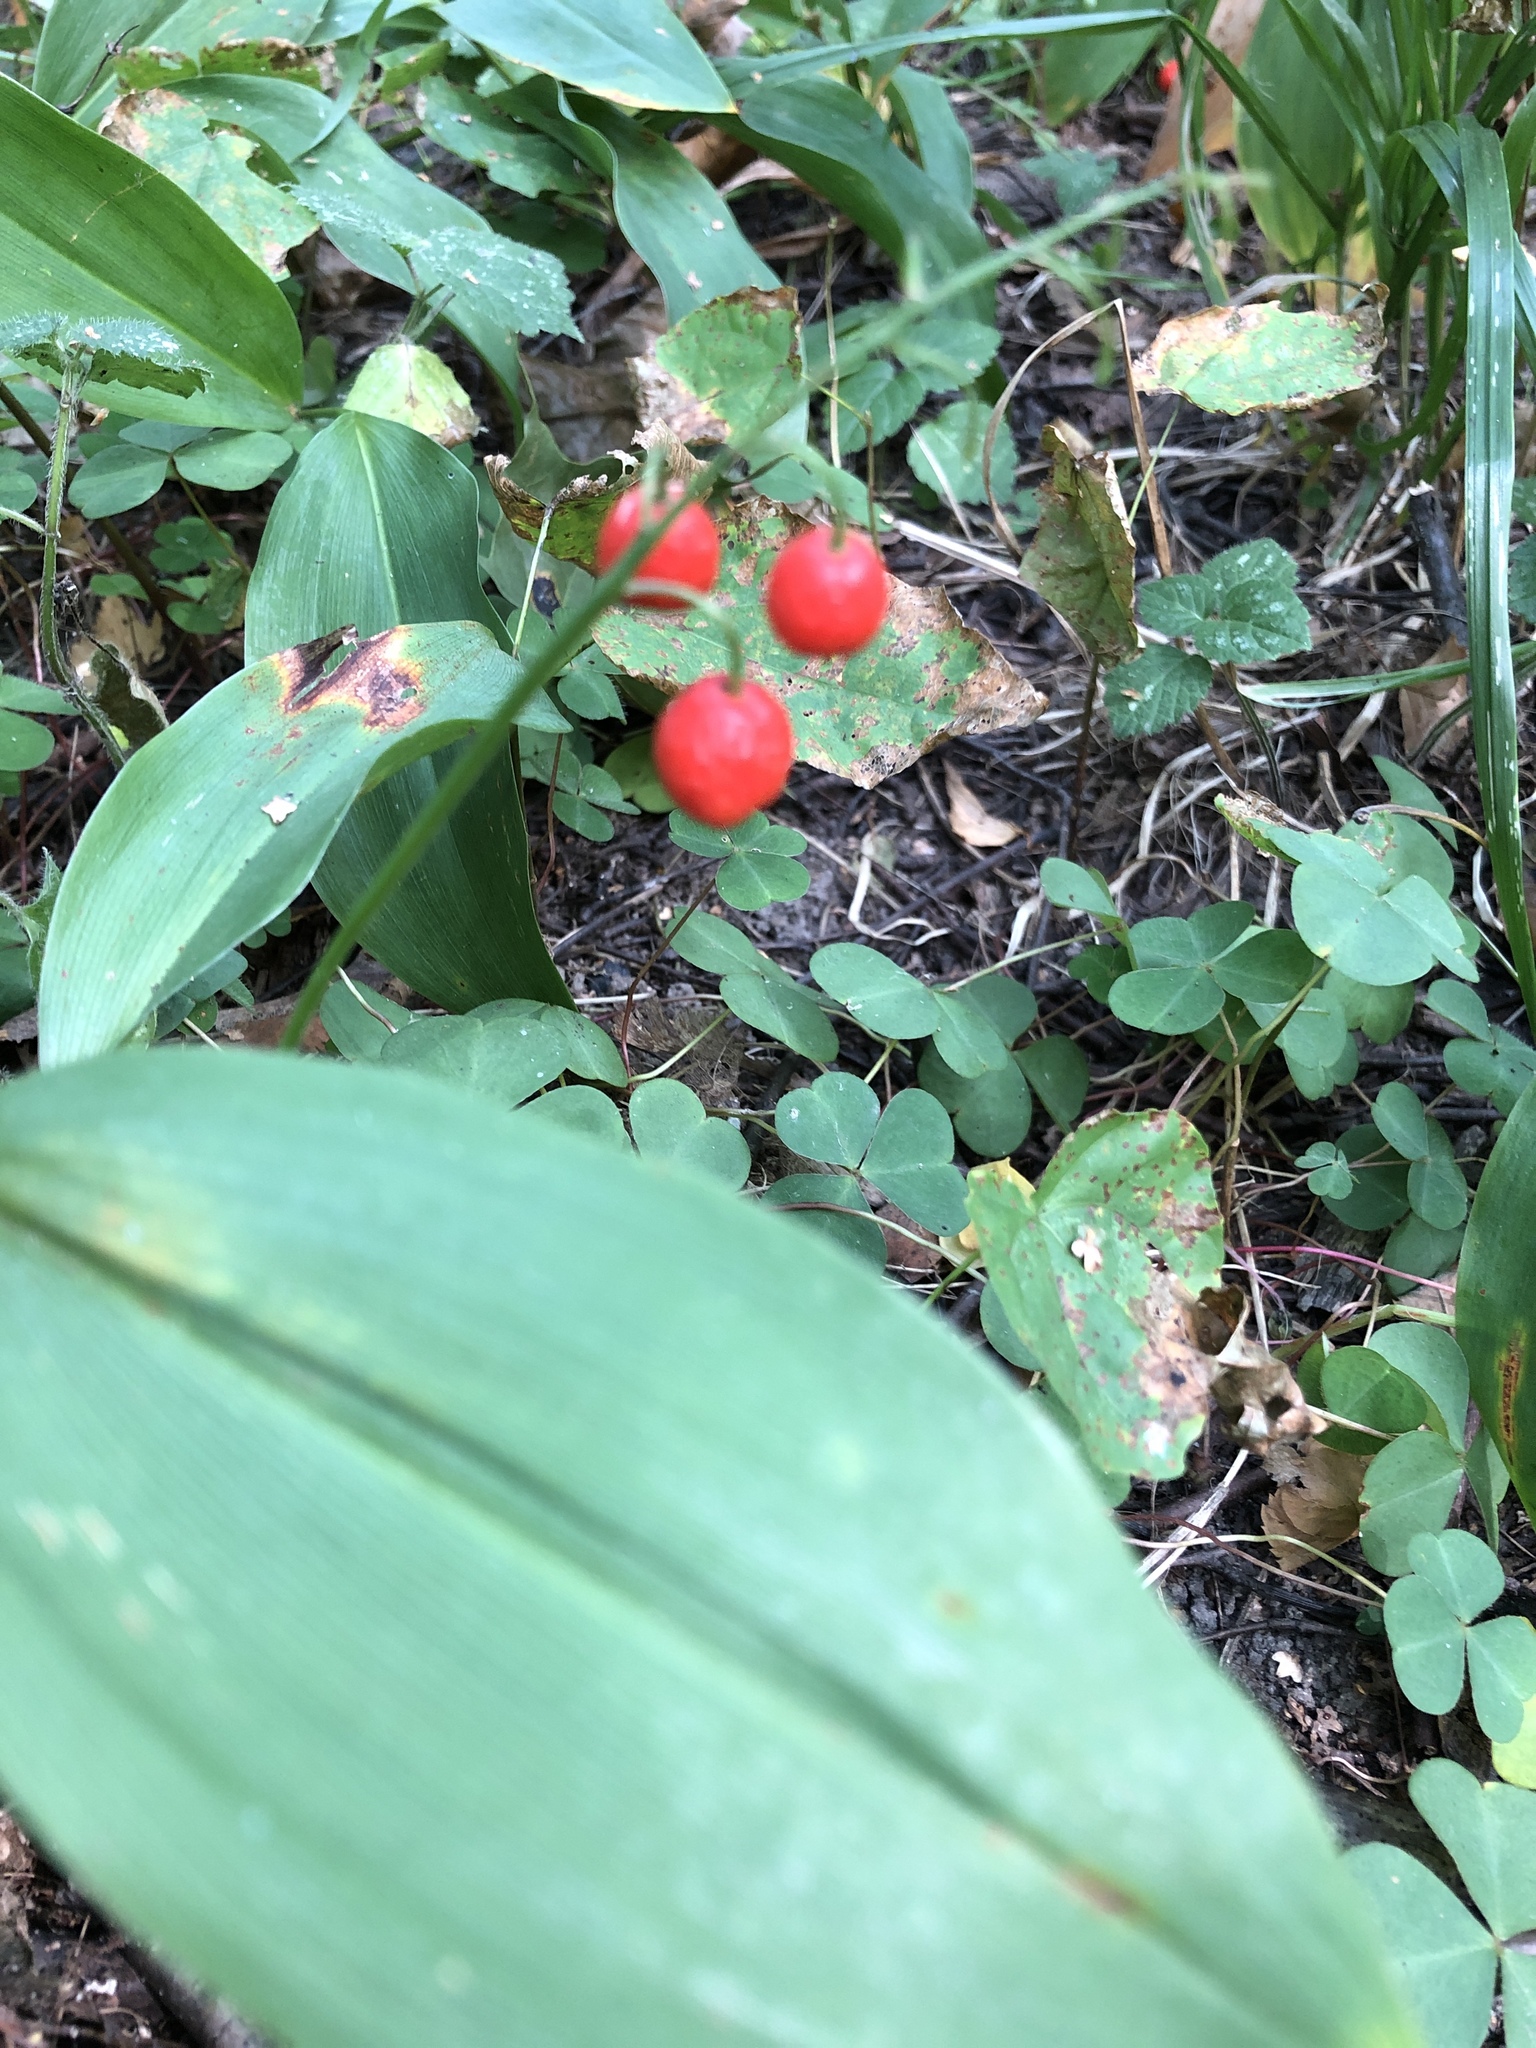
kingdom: Plantae
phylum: Tracheophyta
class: Liliopsida
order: Asparagales
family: Asparagaceae
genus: Convallaria
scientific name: Convallaria majalis
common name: Lily-of-the-valley
